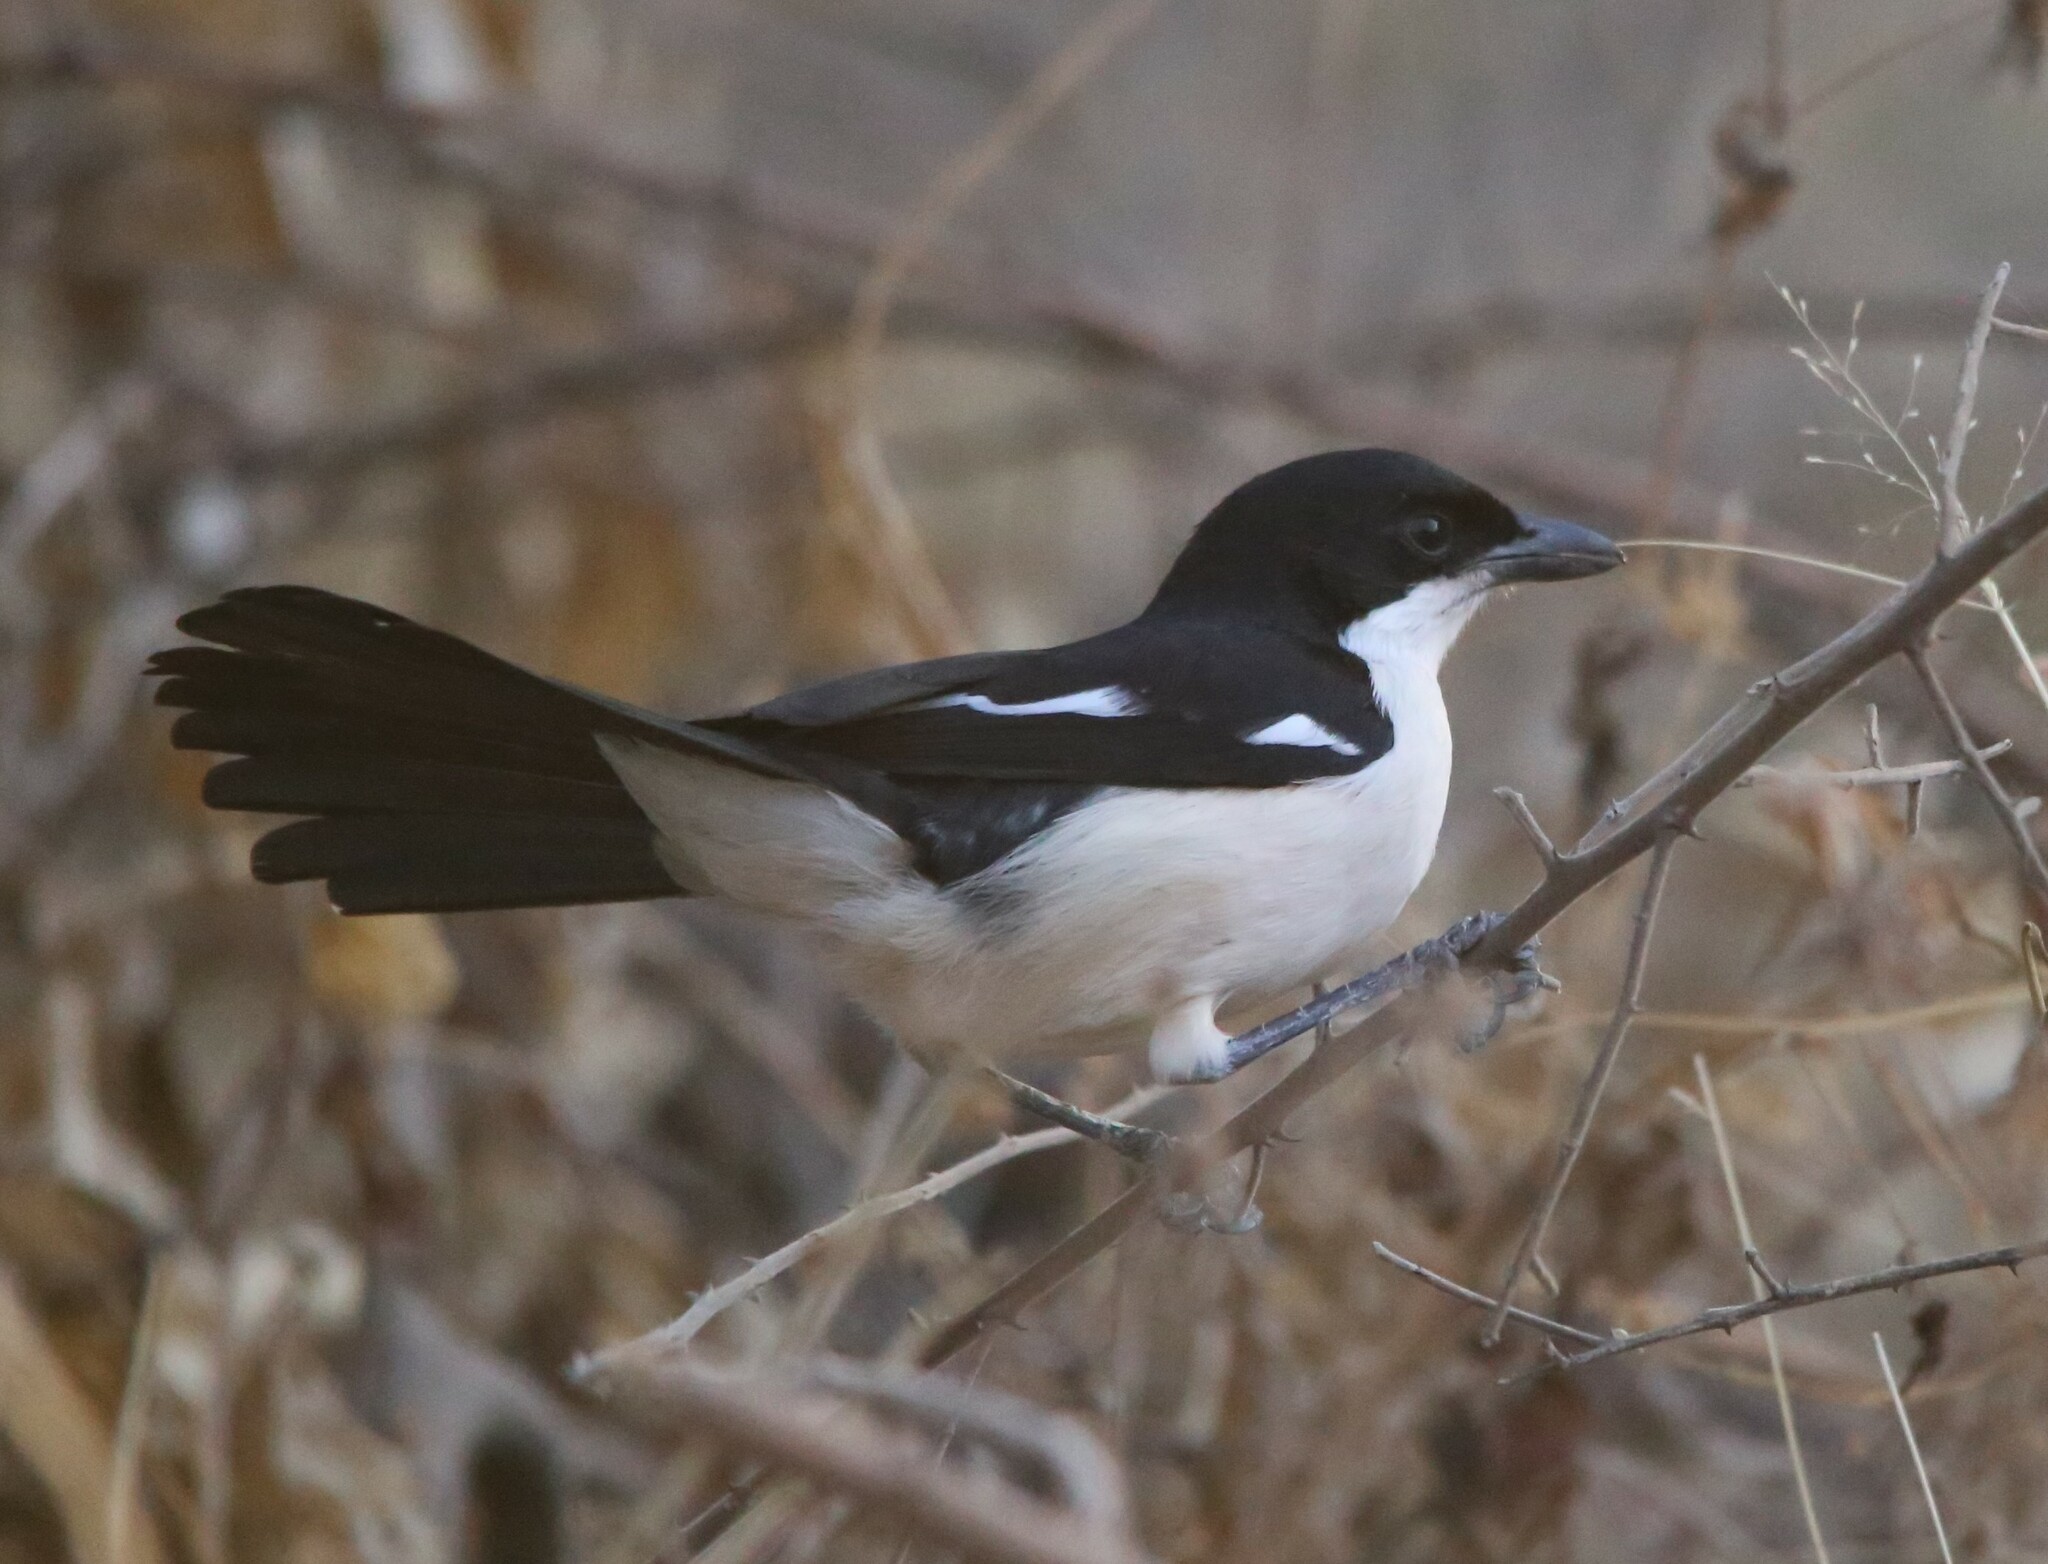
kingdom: Animalia
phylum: Chordata
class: Aves
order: Passeriformes
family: Malaconotidae
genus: Laniarius
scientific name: Laniarius major
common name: Tropical boubou
